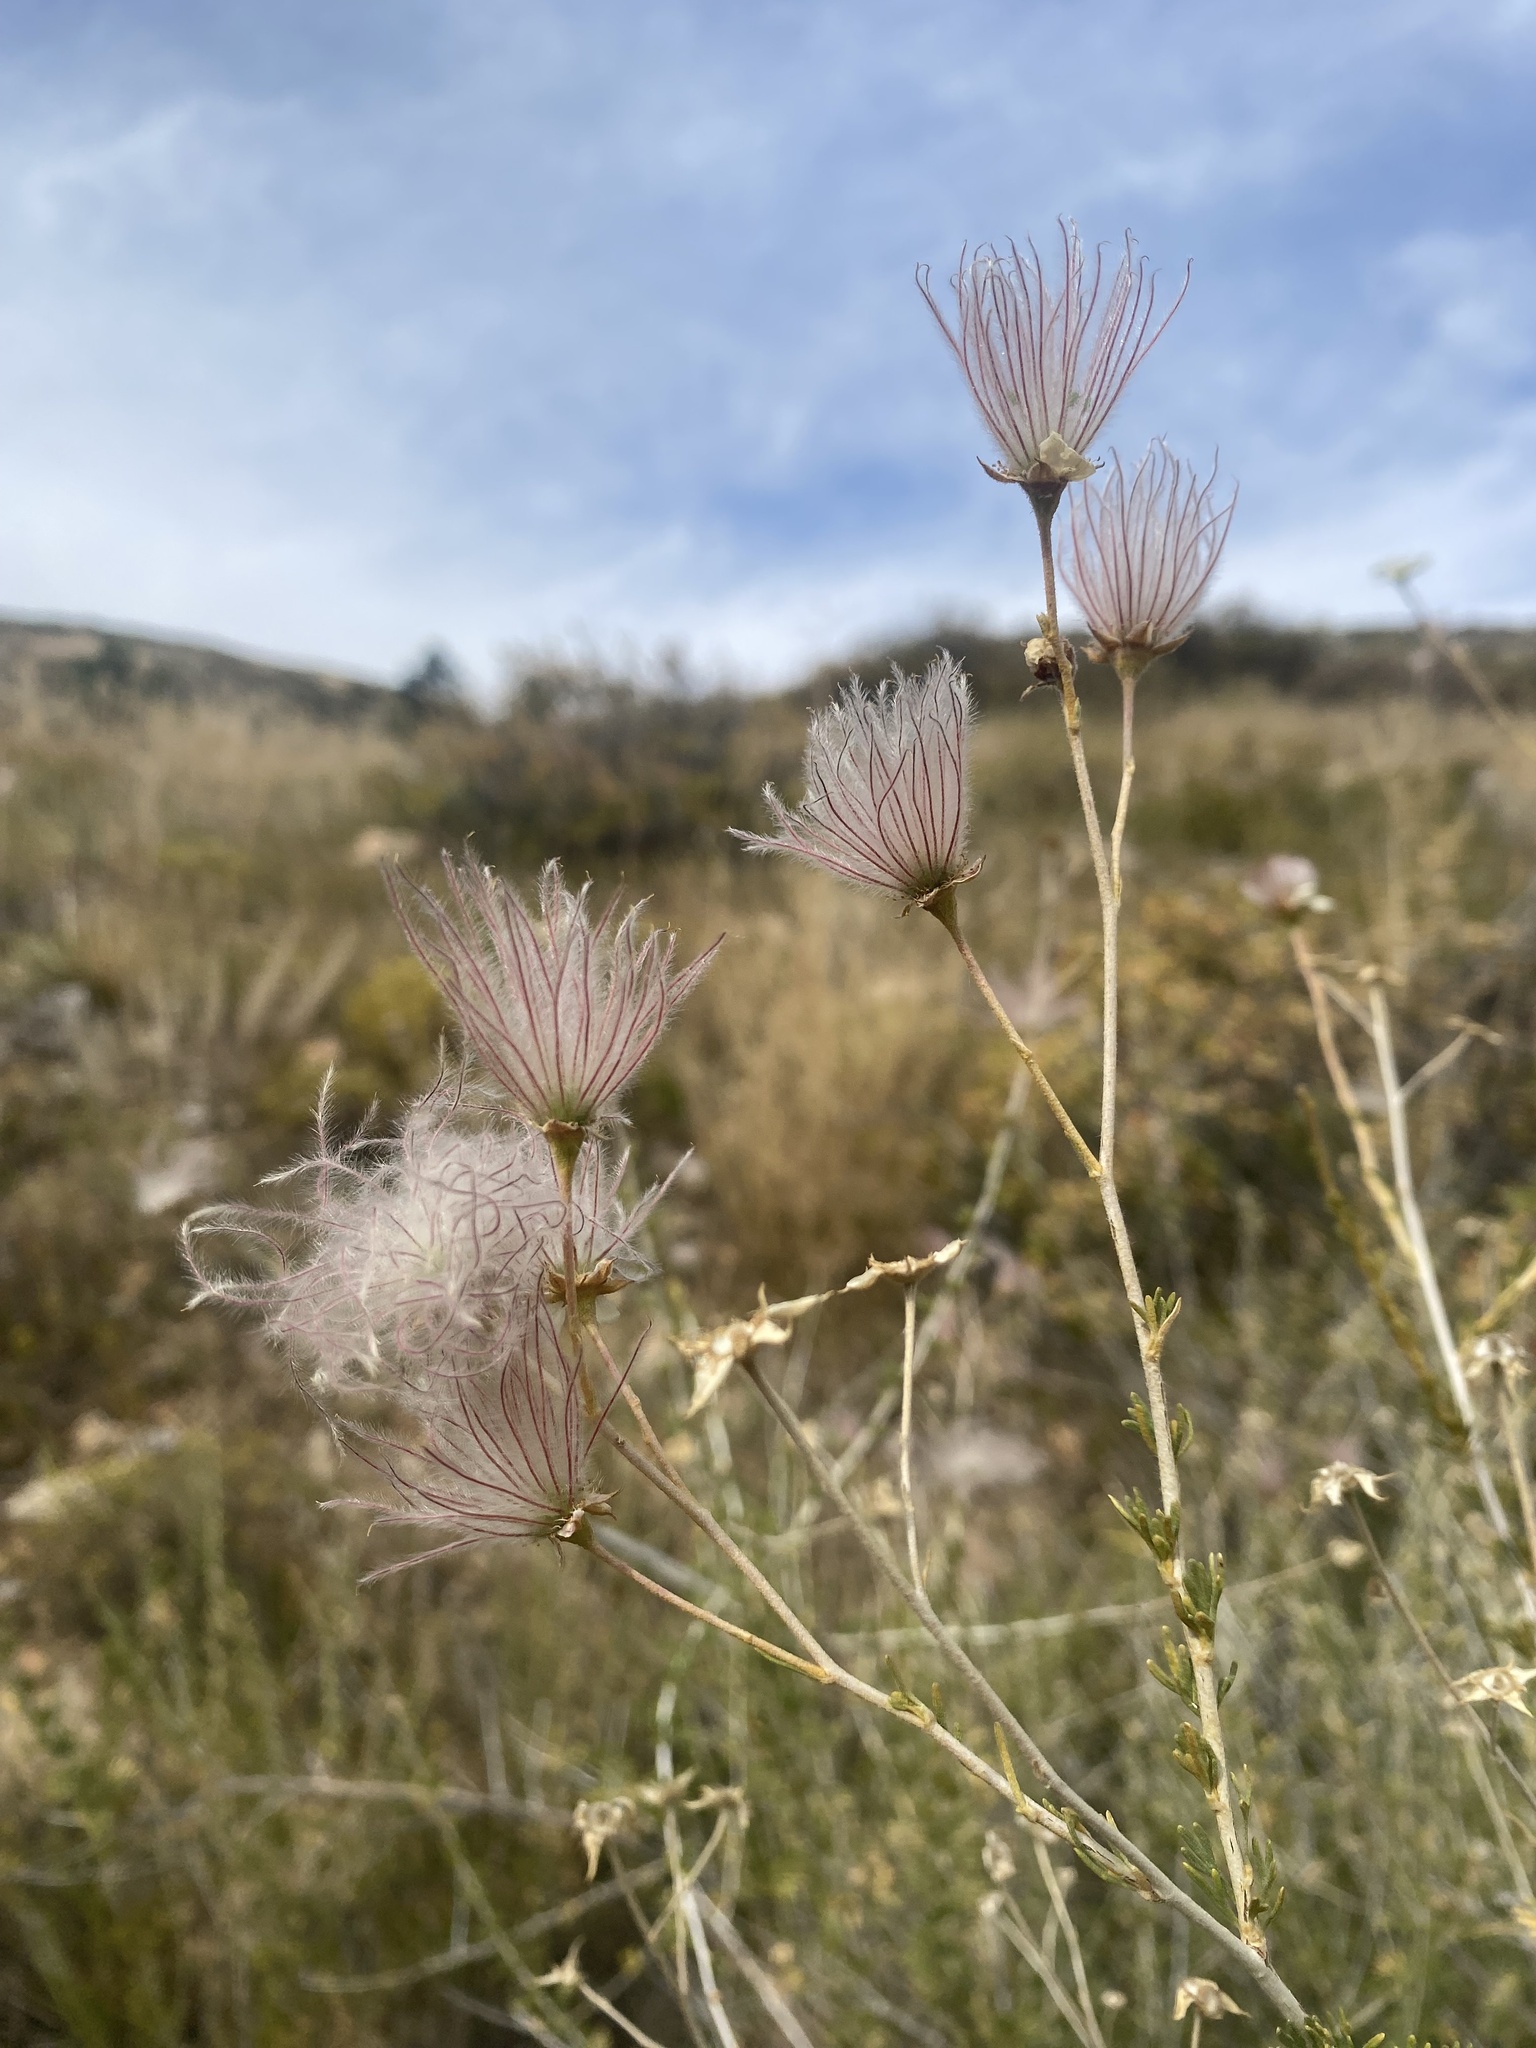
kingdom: Plantae
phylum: Tracheophyta
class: Magnoliopsida
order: Rosales
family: Rosaceae
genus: Fallugia
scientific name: Fallugia paradoxa
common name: Apache-plume
